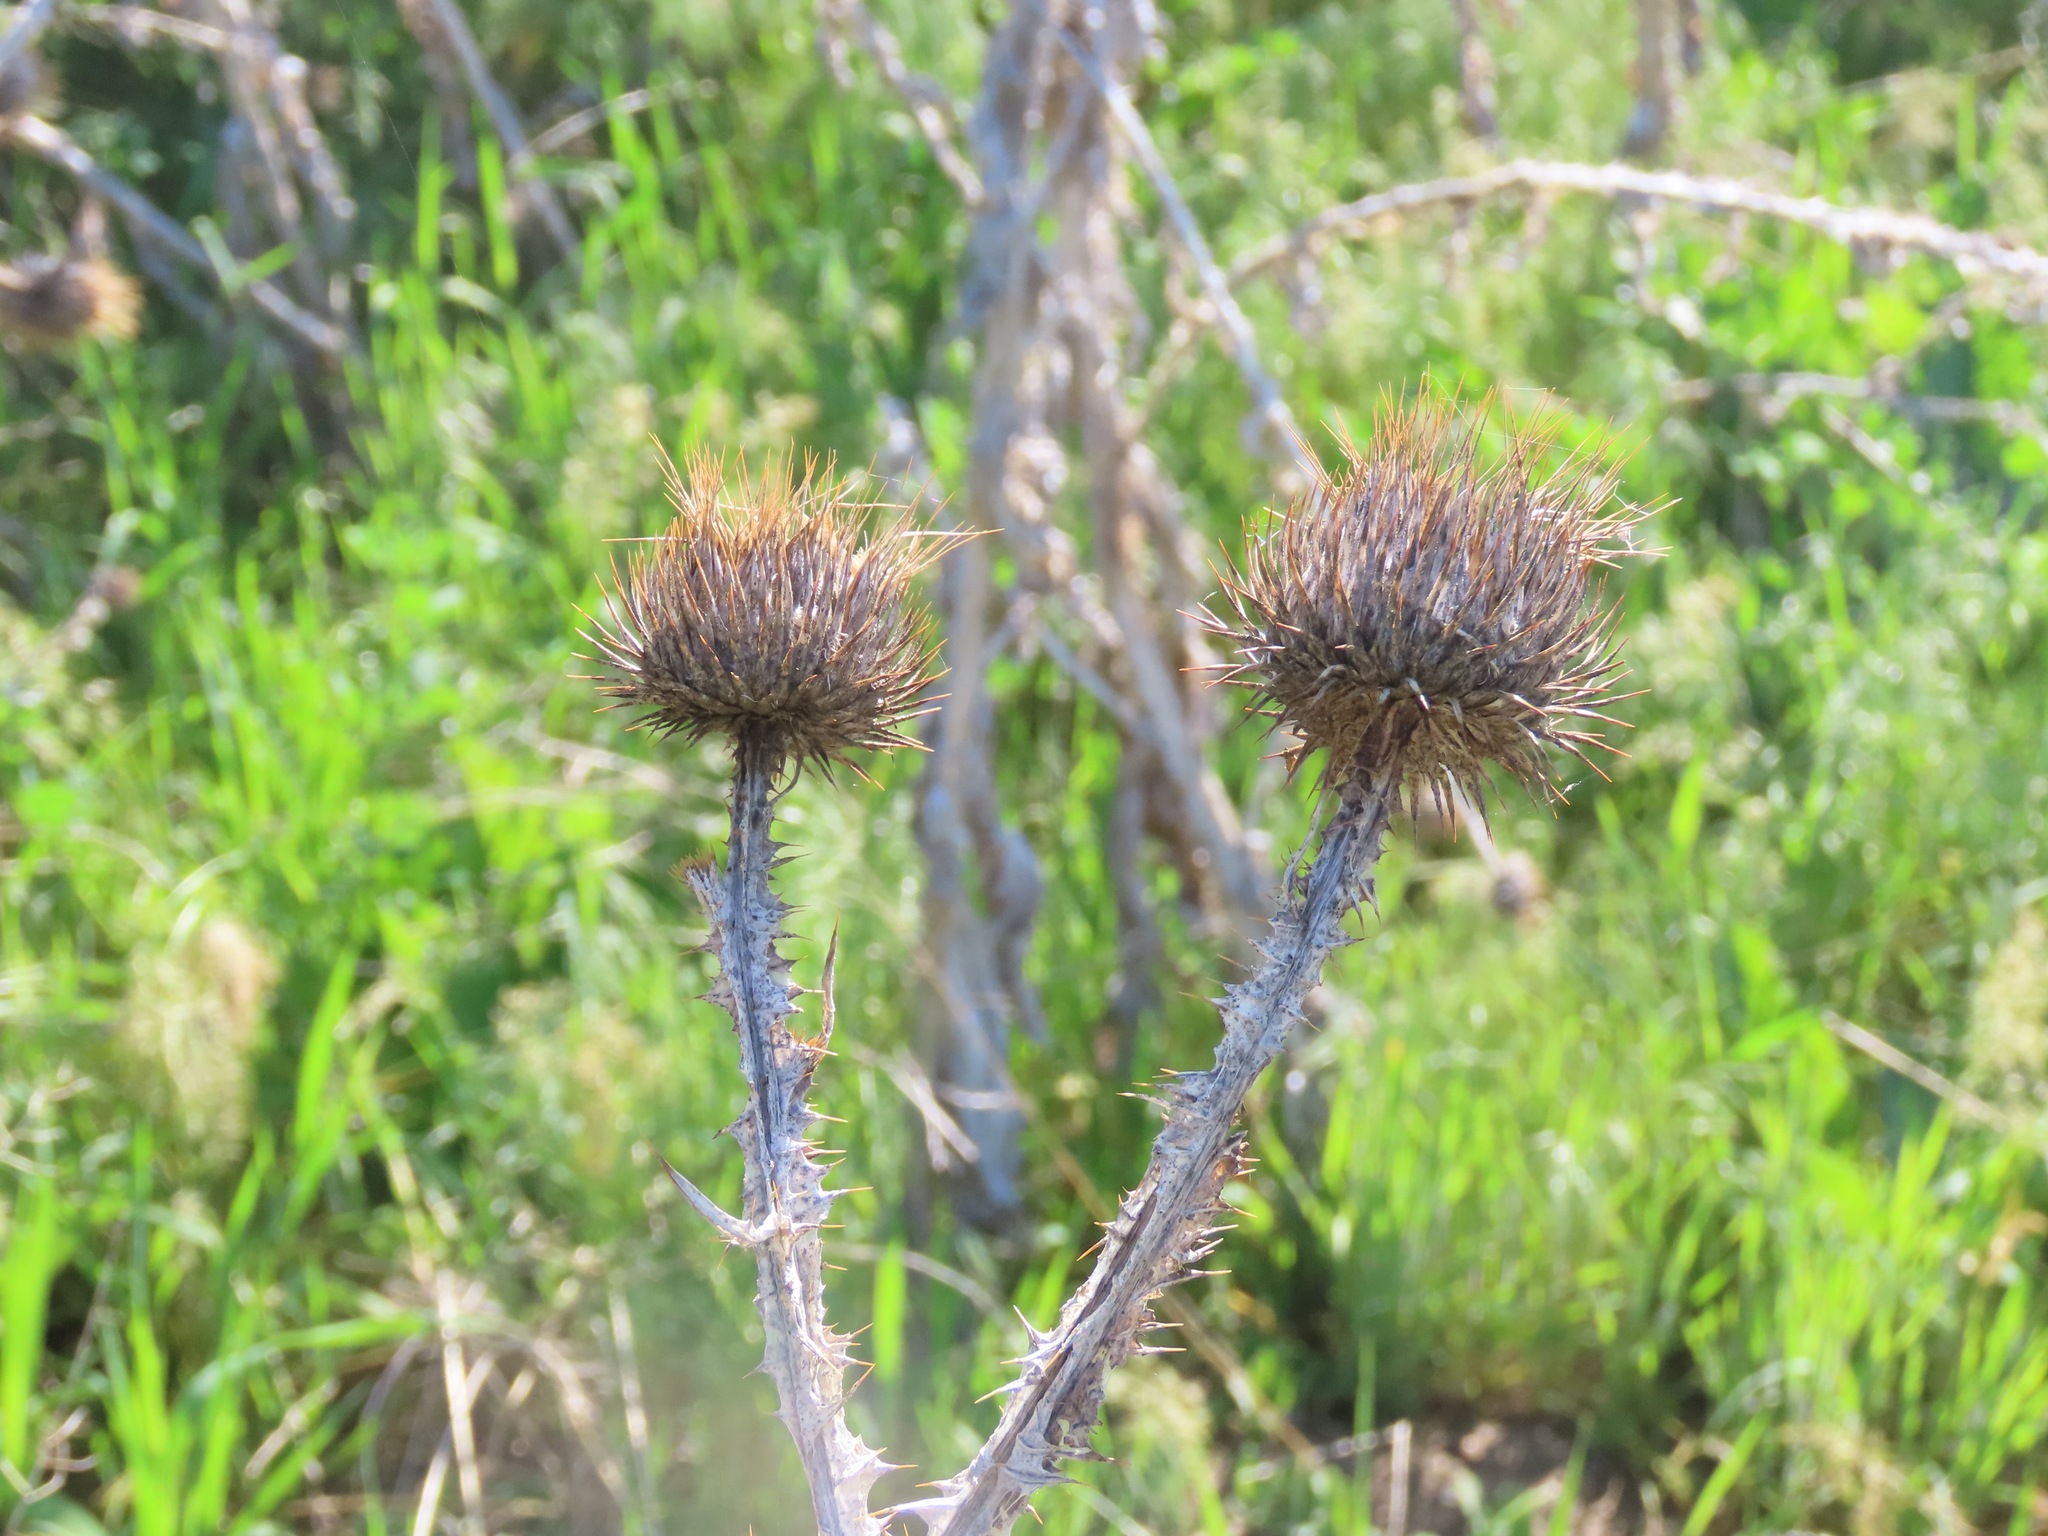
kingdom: Plantae
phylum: Tracheophyta
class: Magnoliopsida
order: Asterales
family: Asteraceae
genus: Onopordum
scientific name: Onopordum acanthium
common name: Scotch thistle
